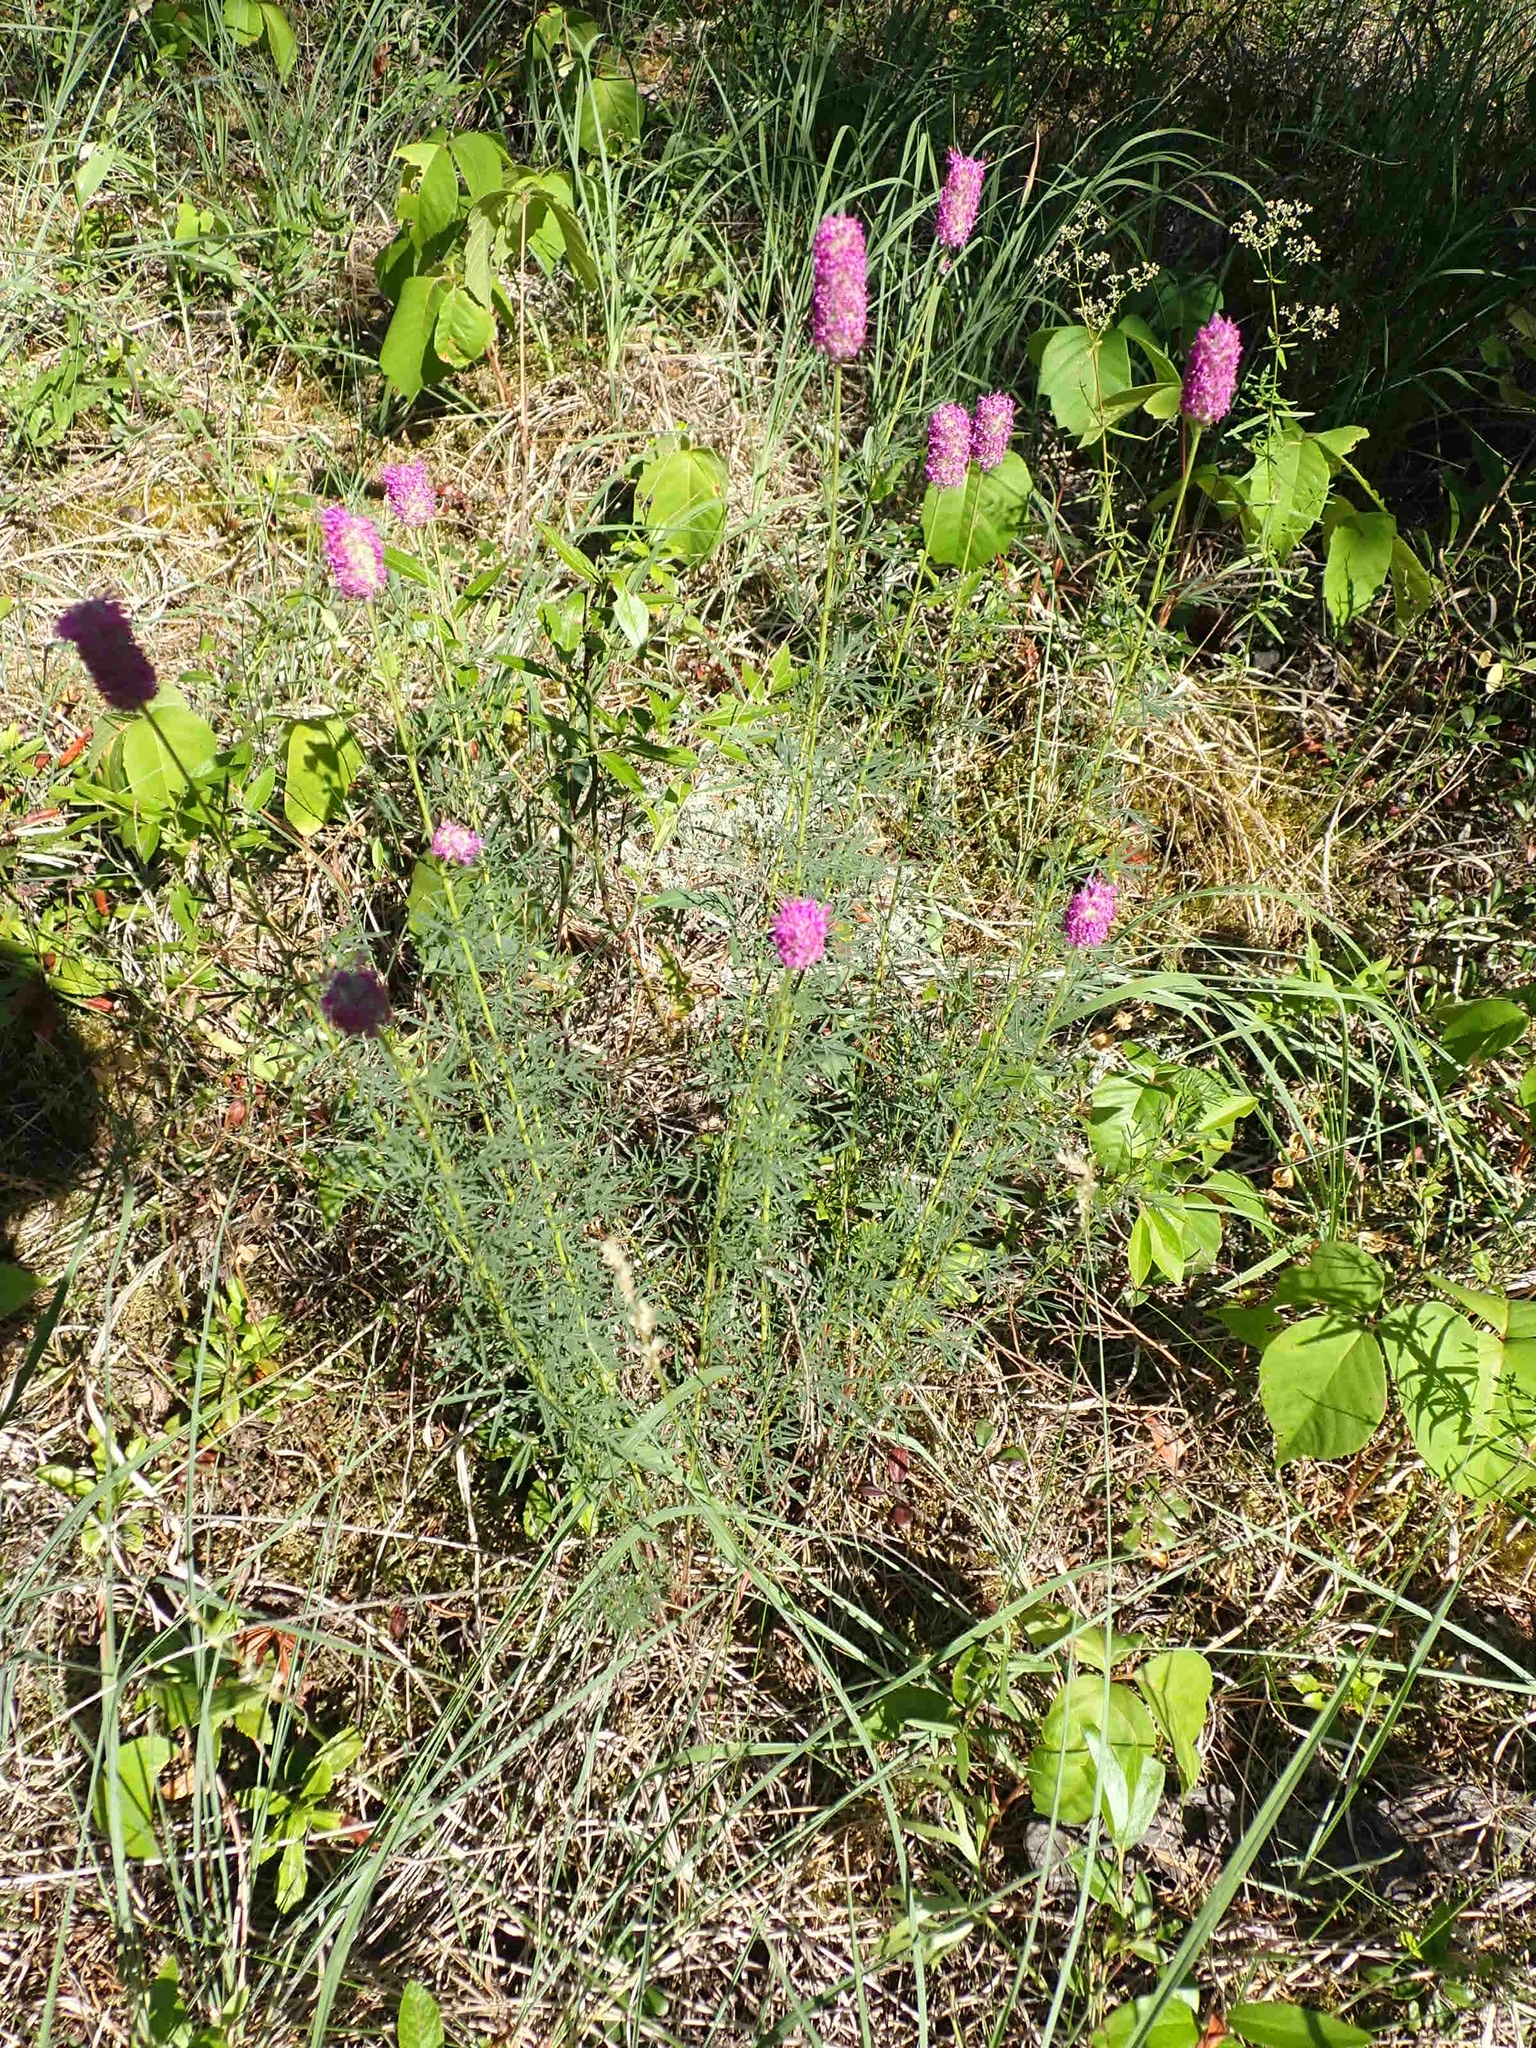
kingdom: Plantae
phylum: Tracheophyta
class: Magnoliopsida
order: Fabales
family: Fabaceae
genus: Dalea
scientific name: Dalea purpurea
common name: Purple prairie-clover
